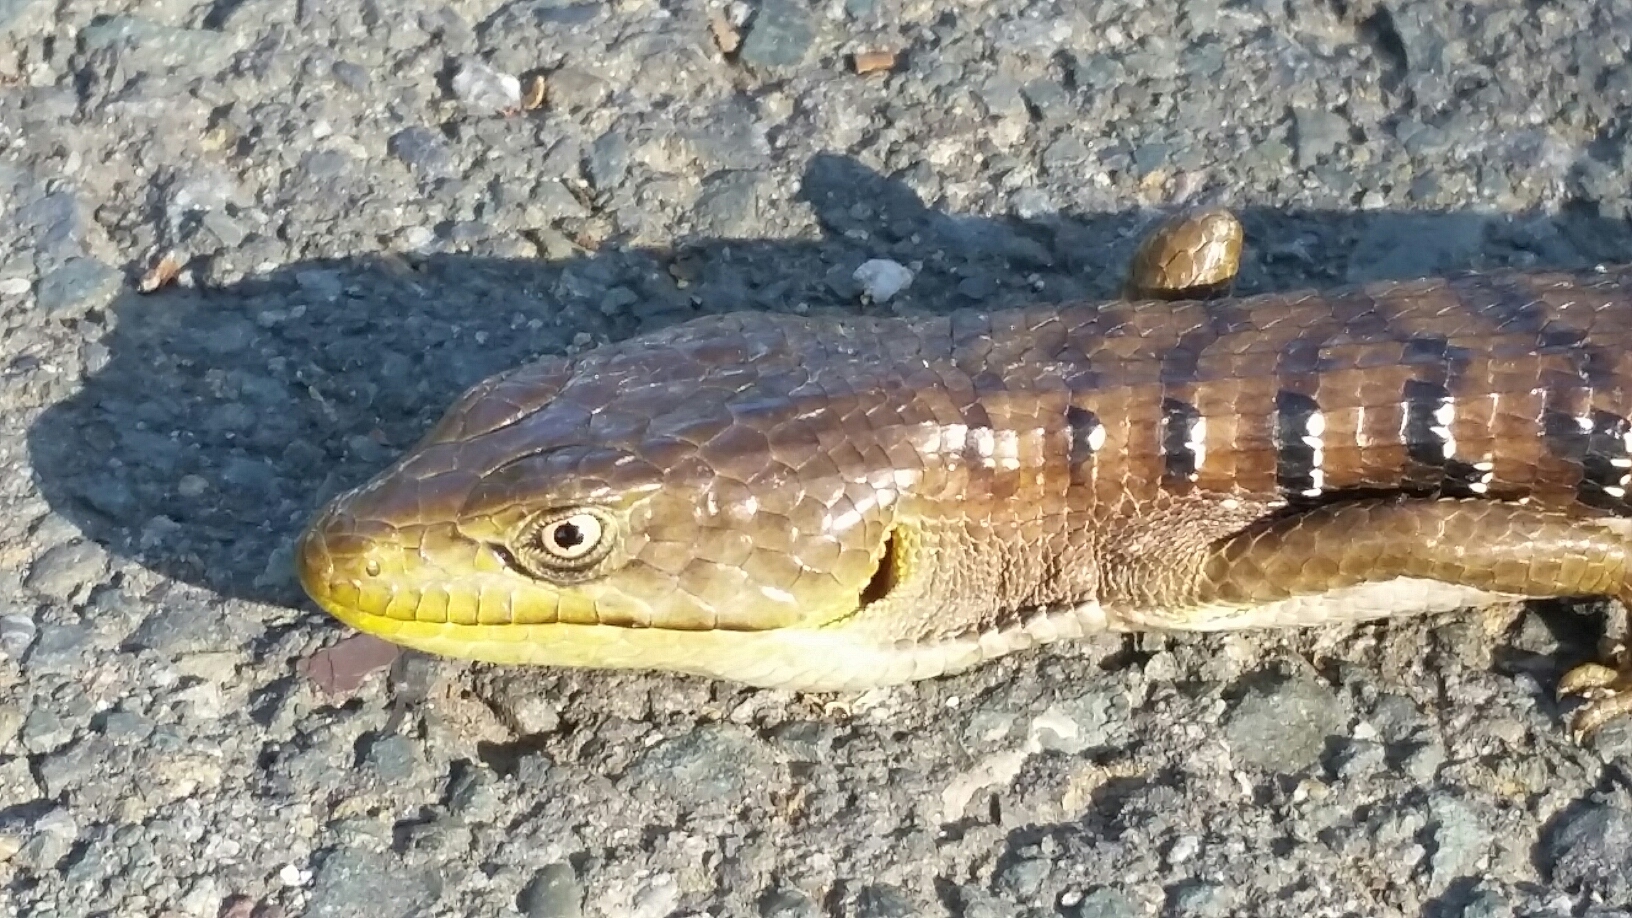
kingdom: Animalia
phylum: Chordata
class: Squamata
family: Anguidae
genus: Elgaria
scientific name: Elgaria multicarinata
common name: Southern alligator lizard
